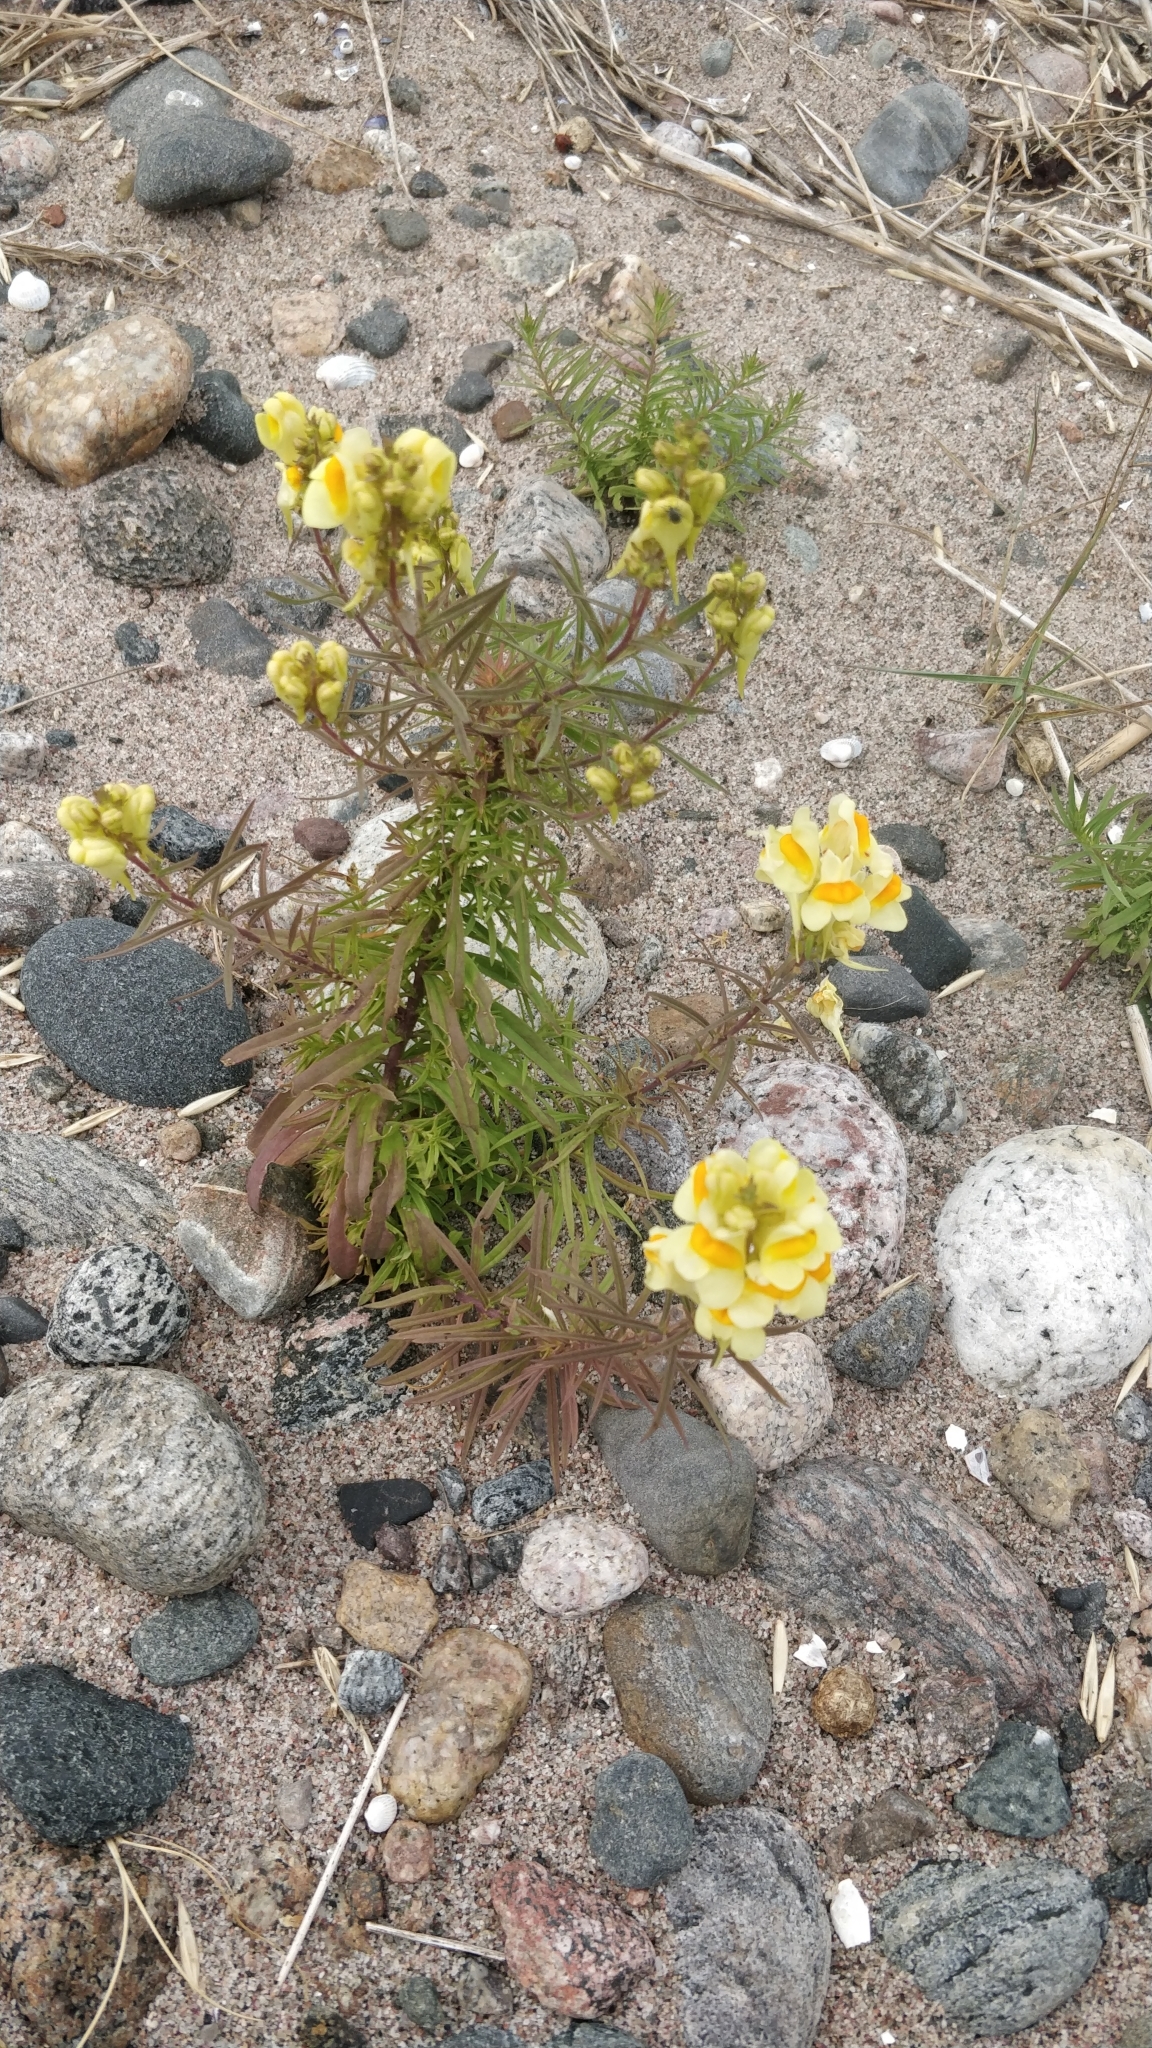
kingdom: Plantae
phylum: Tracheophyta
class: Magnoliopsida
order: Lamiales
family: Plantaginaceae
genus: Linaria
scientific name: Linaria vulgaris
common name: Butter and eggs
